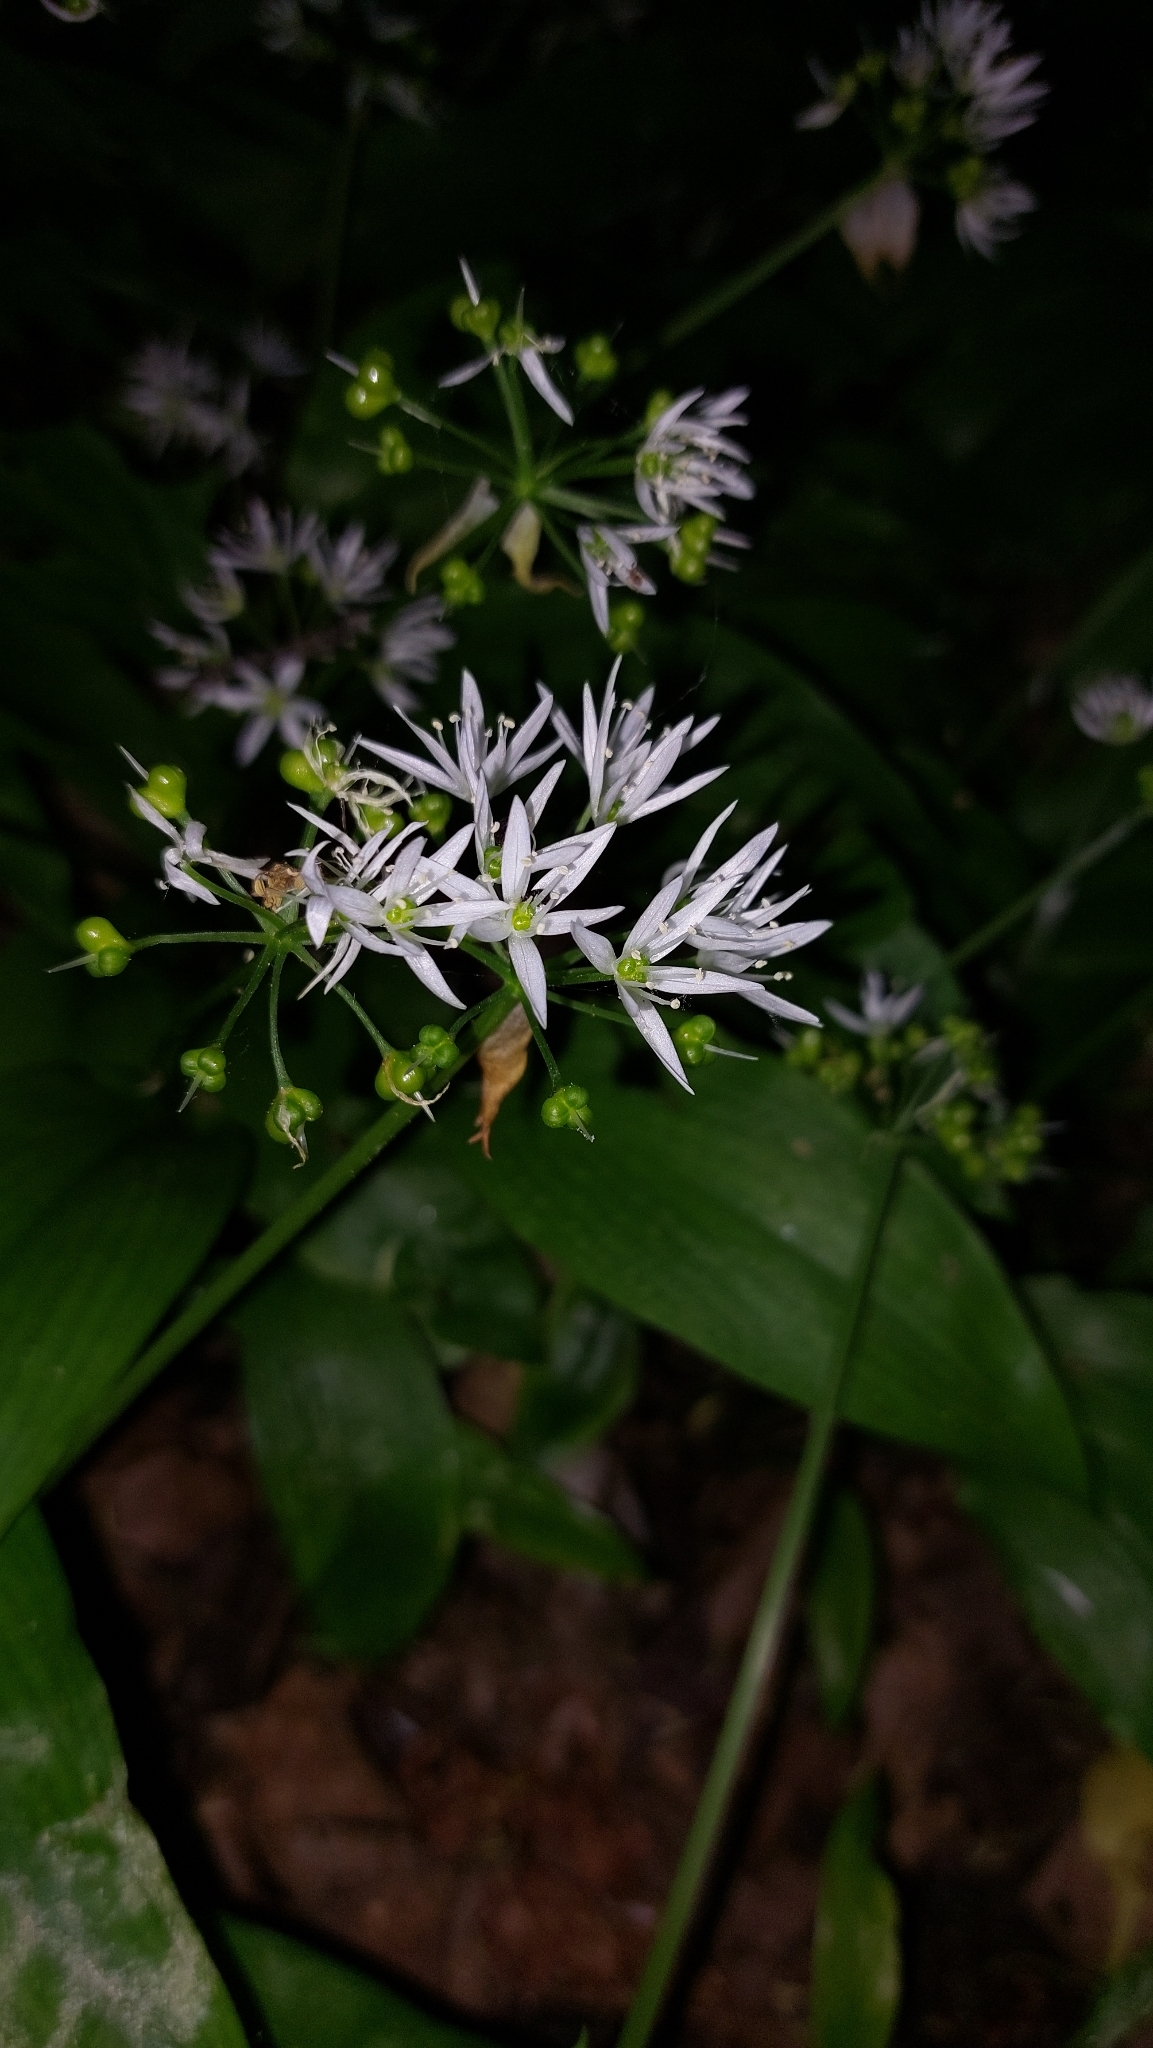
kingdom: Plantae
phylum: Tracheophyta
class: Liliopsida
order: Asparagales
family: Amaryllidaceae
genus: Allium
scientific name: Allium ursinum
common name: Ramsons
